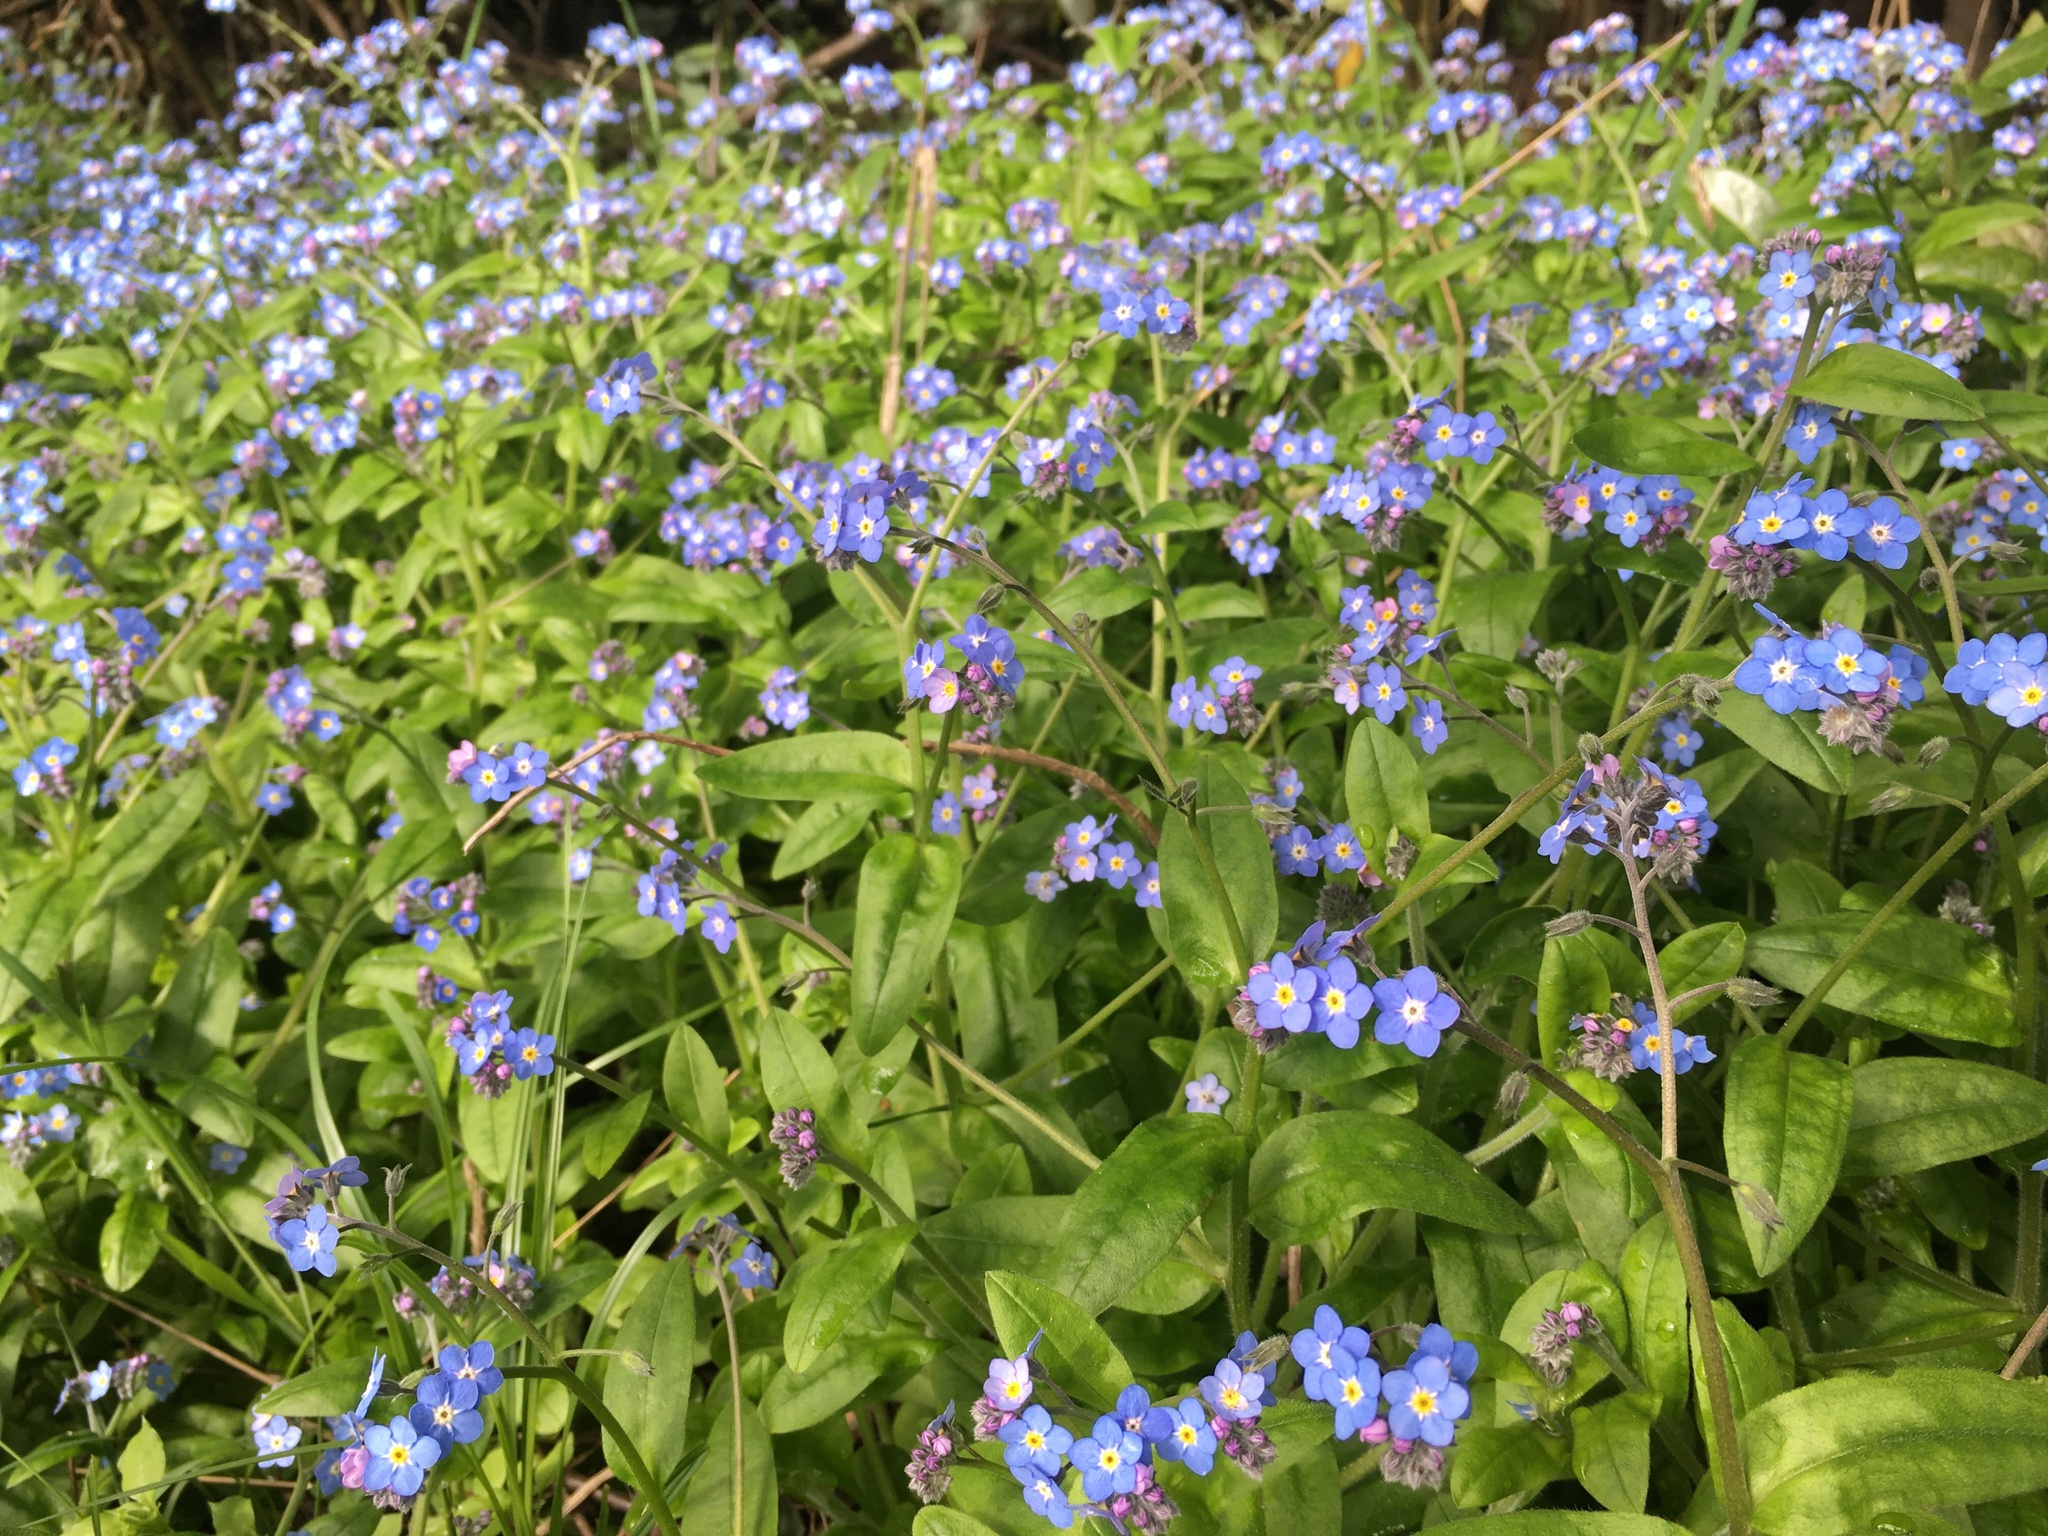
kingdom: Plantae
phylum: Tracheophyta
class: Magnoliopsida
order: Boraginales
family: Boraginaceae
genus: Myosotis
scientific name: Myosotis sylvatica
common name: Wood forget-me-not
